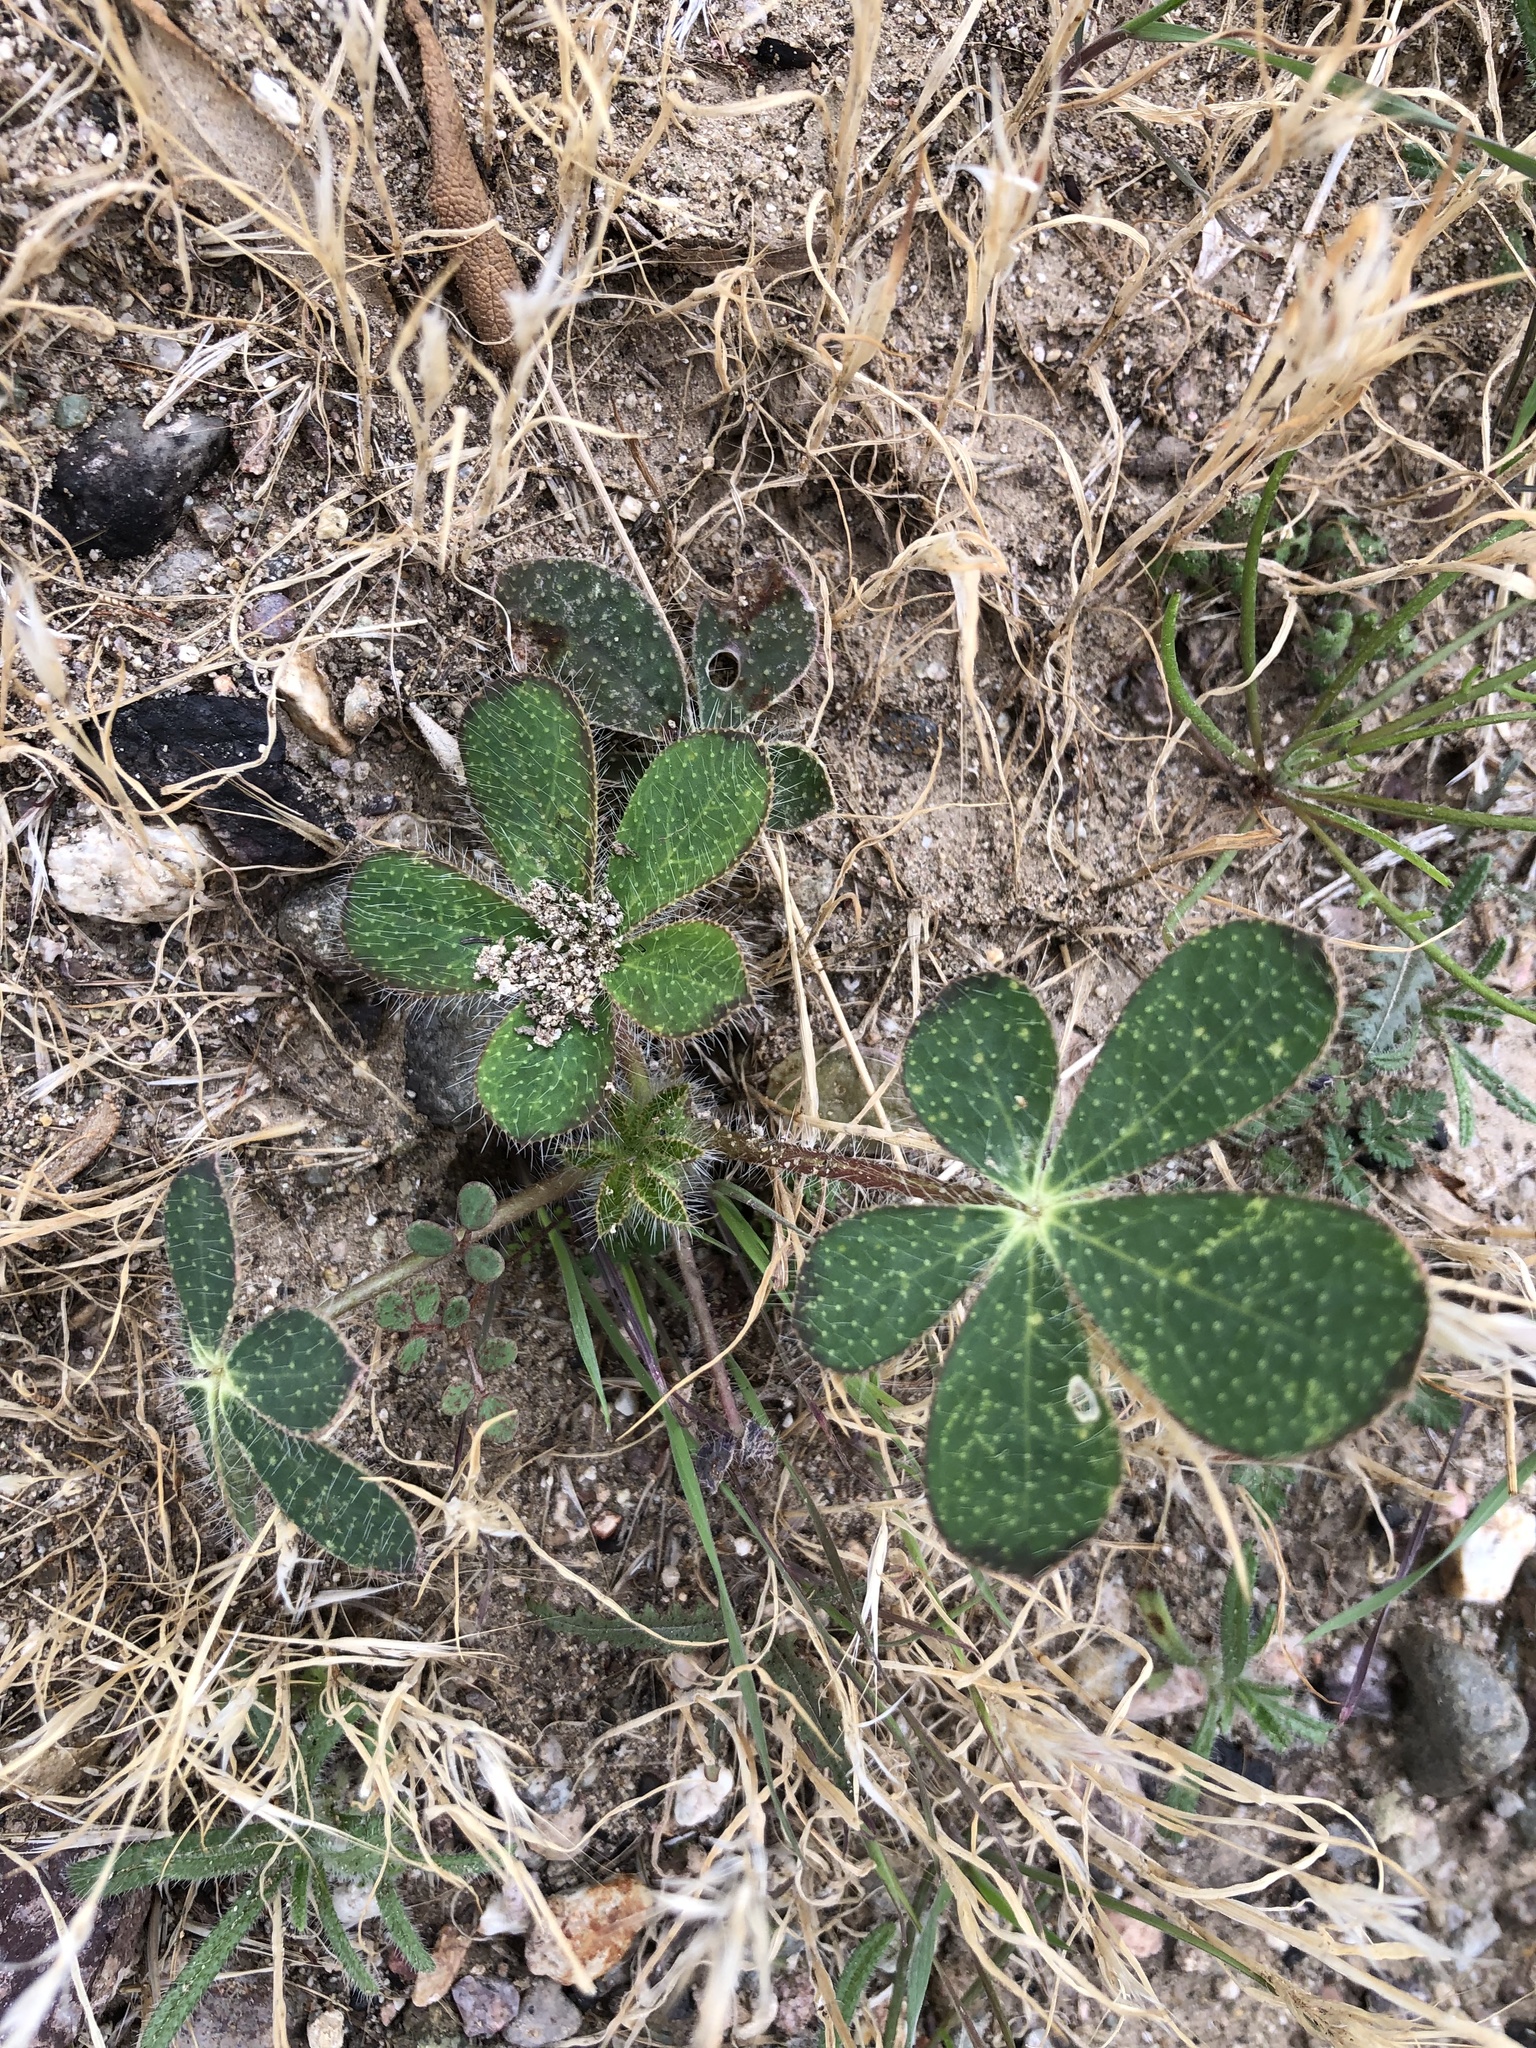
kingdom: Plantae
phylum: Tracheophyta
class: Magnoliopsida
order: Fabales
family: Fabaceae
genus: Lupinus
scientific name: Lupinus hirsutissimus
